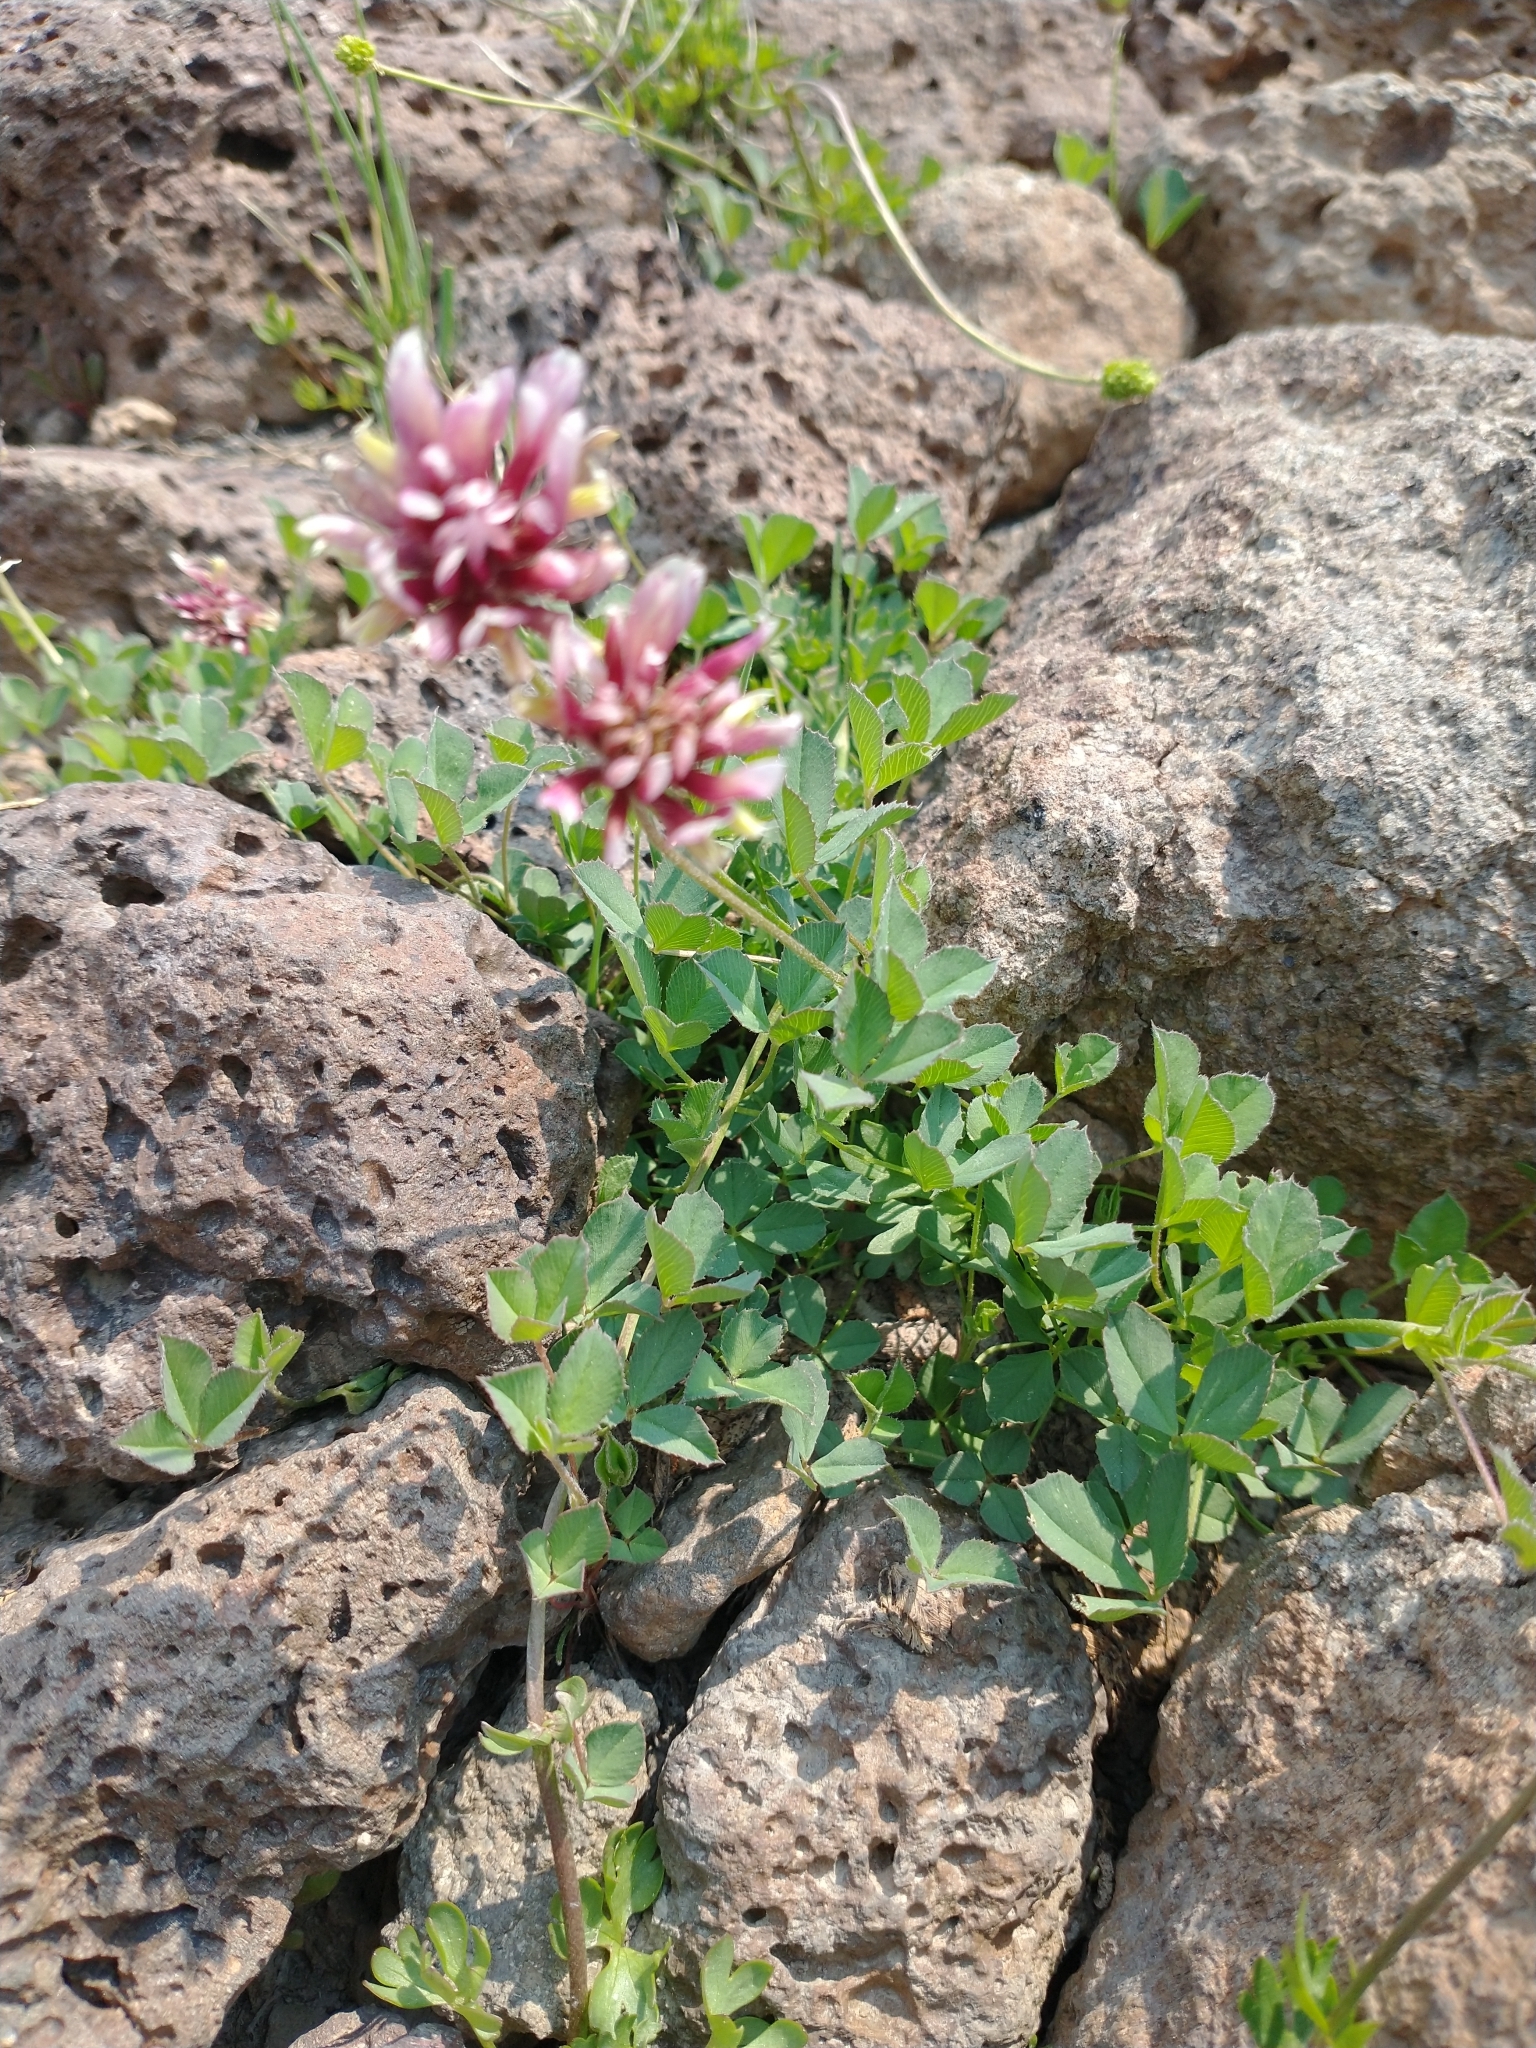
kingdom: Plantae
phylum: Tracheophyta
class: Magnoliopsida
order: Fabales
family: Fabaceae
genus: Trifolium
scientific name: Trifolium longipes
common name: Long-stalk clover
